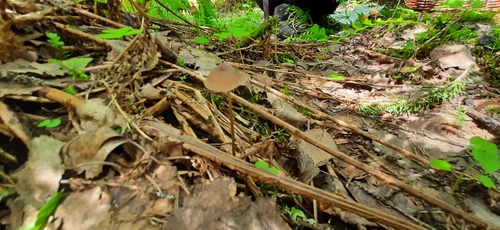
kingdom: Fungi
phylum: Basidiomycota
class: Agaricomycetes
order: Agaricales
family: Mycenaceae
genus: Mycena
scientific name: Mycena
